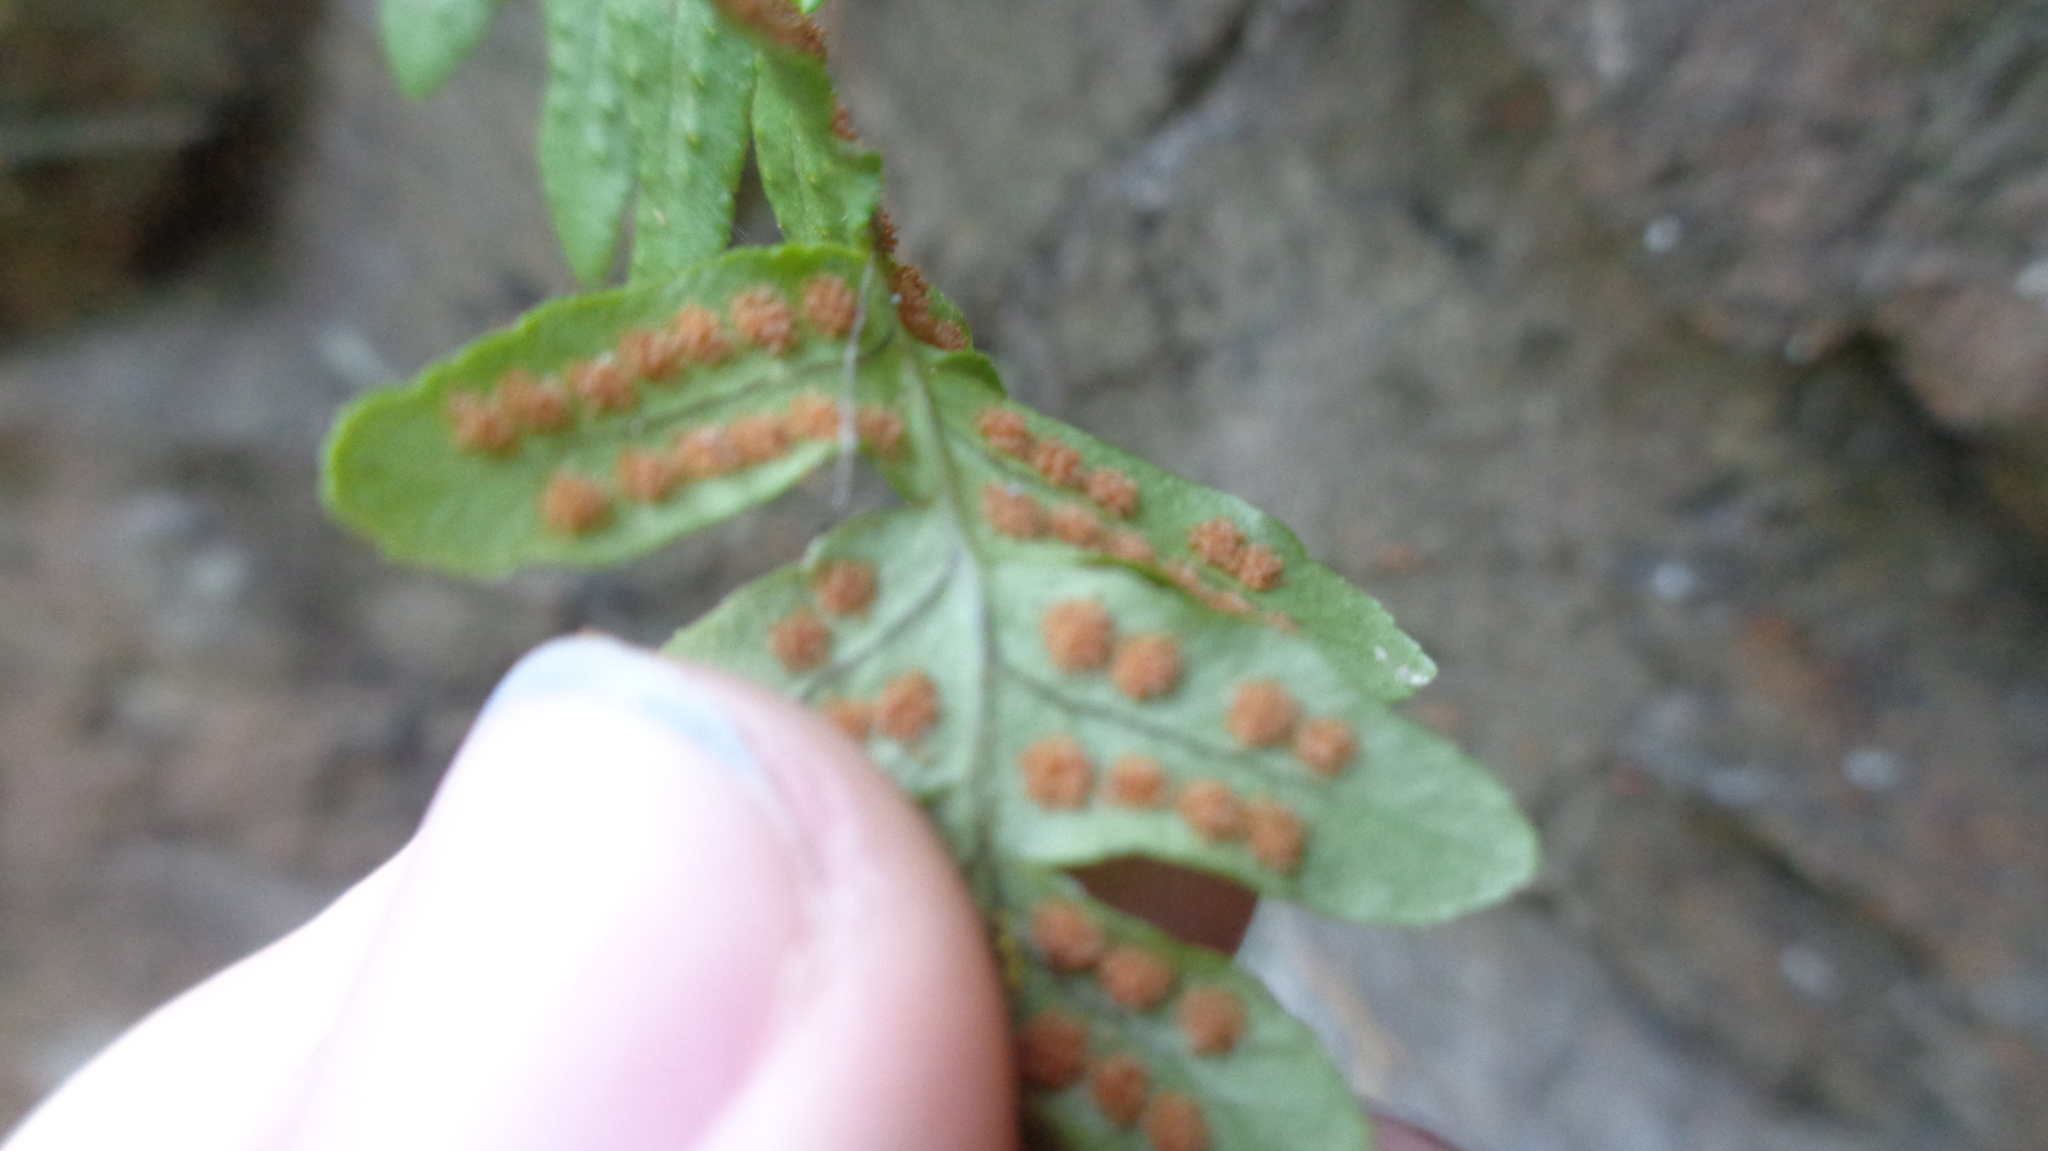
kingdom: Plantae
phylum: Tracheophyta
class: Polypodiopsida
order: Polypodiales
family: Polypodiaceae
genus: Polypodium
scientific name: Polypodium vulgare
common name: Common polypody
